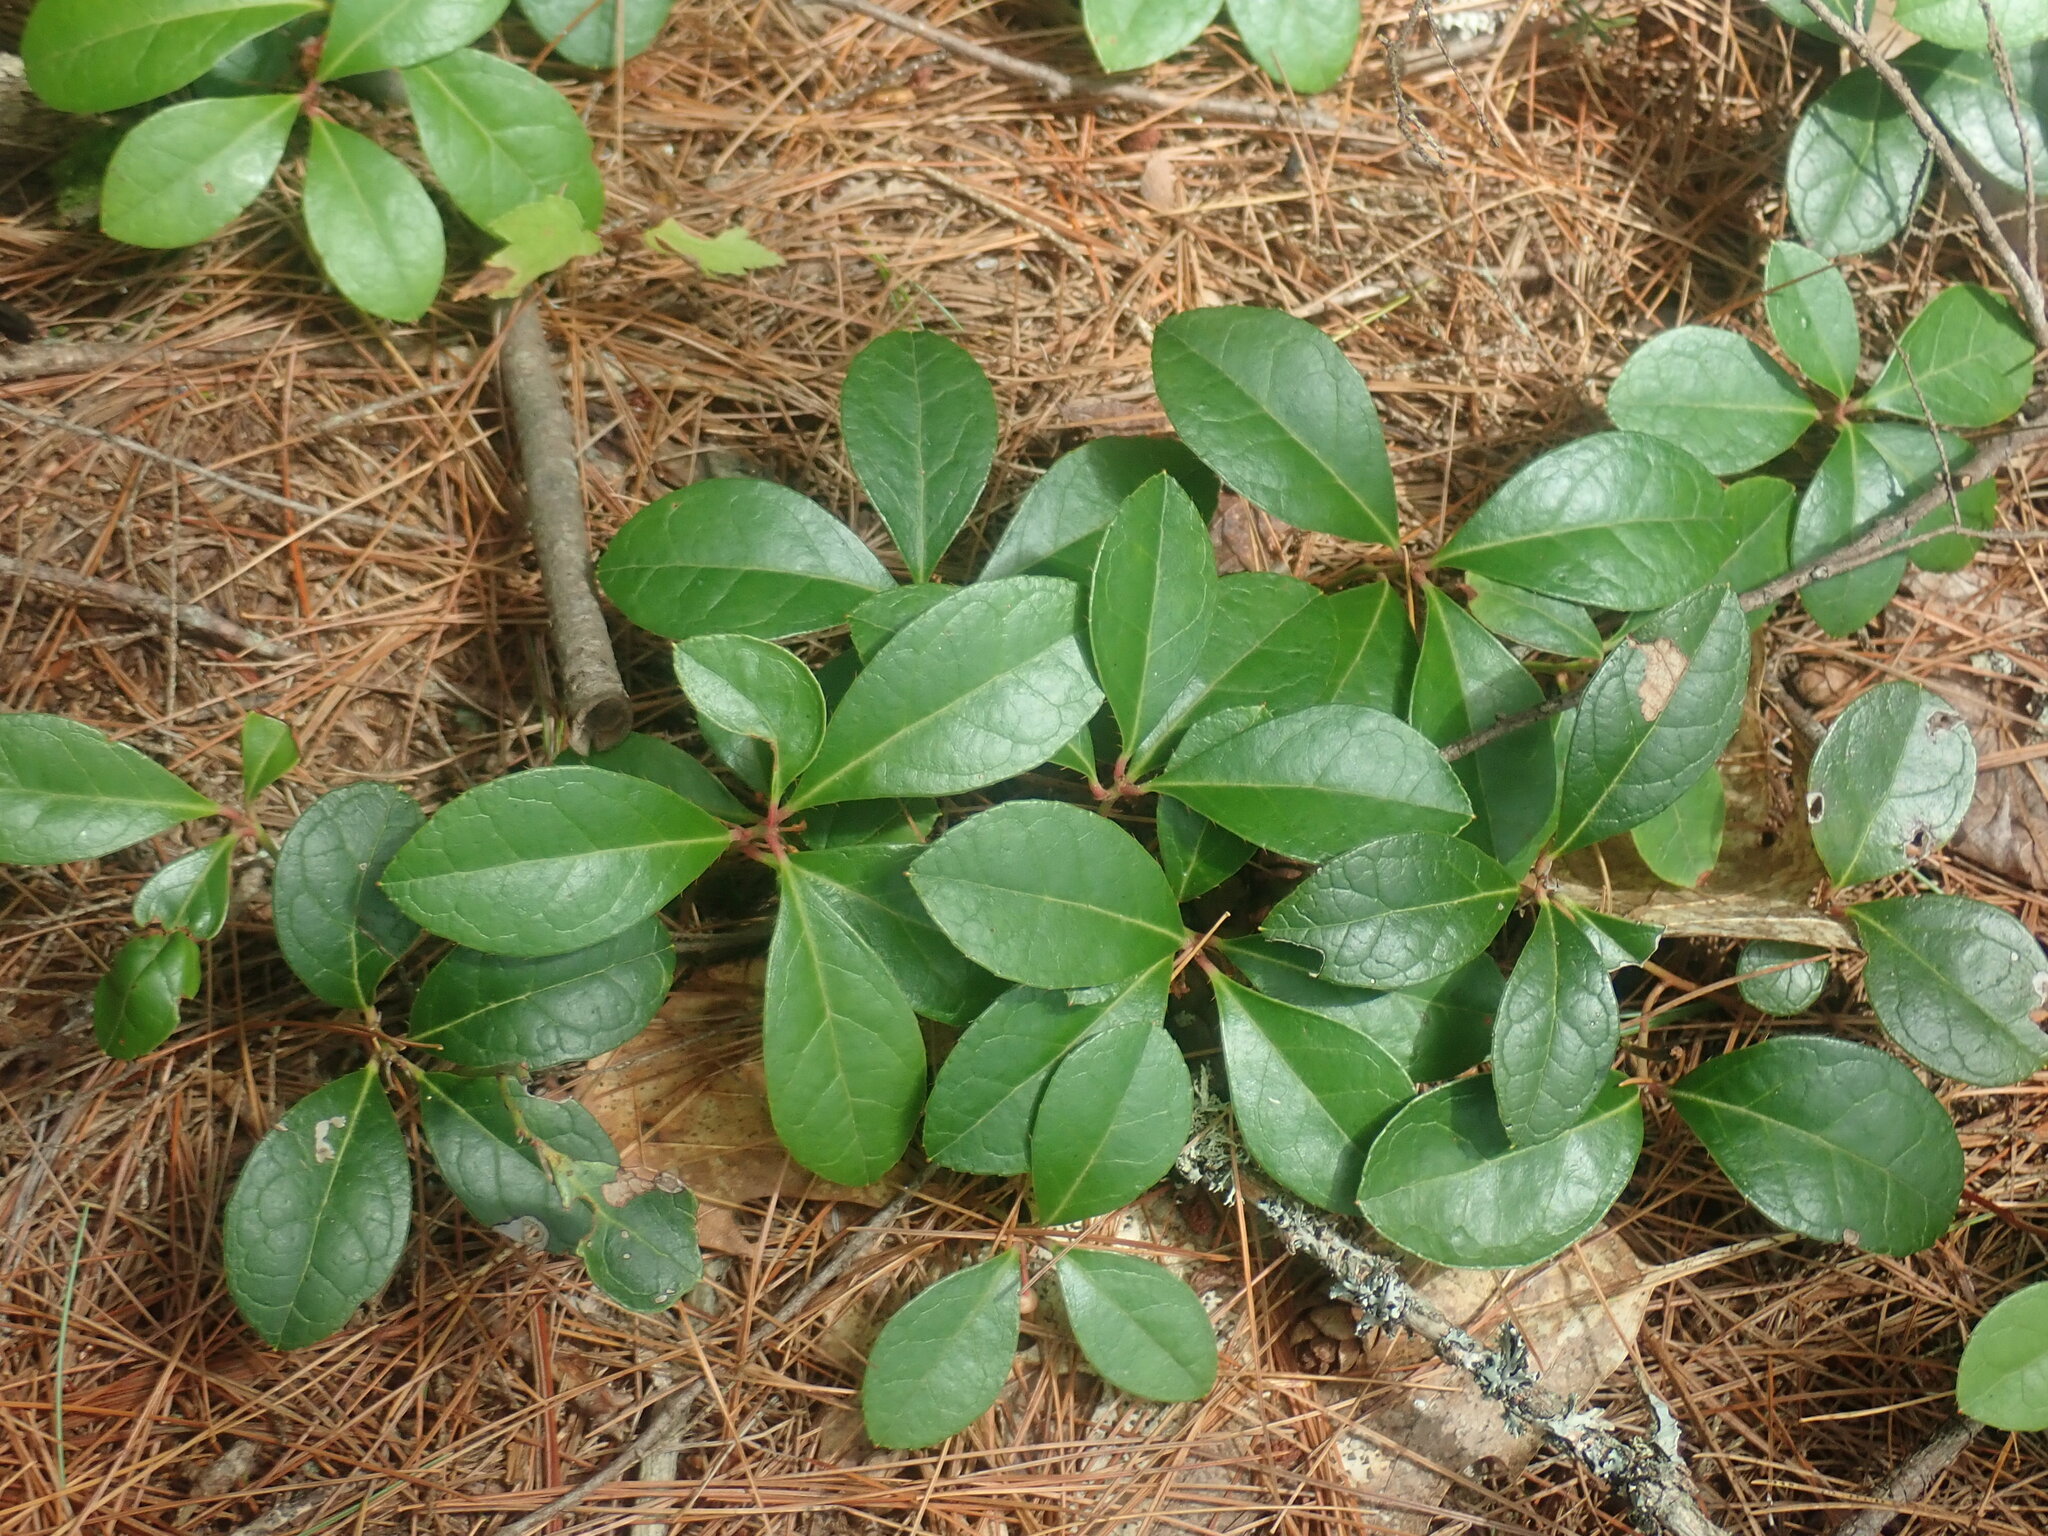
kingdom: Plantae
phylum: Tracheophyta
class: Magnoliopsida
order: Ericales
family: Ericaceae
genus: Gaultheria
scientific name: Gaultheria procumbens
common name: Checkerberry
